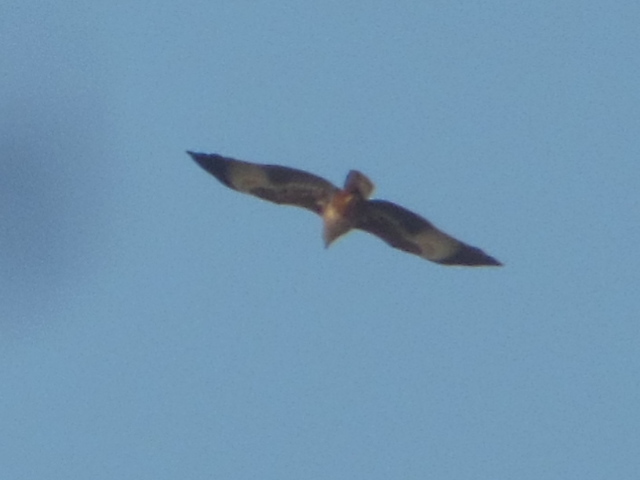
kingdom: Animalia
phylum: Chordata
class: Aves
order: Accipitriformes
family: Accipitridae
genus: Haliastur
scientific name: Haliastur indus
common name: Brahminy kite
